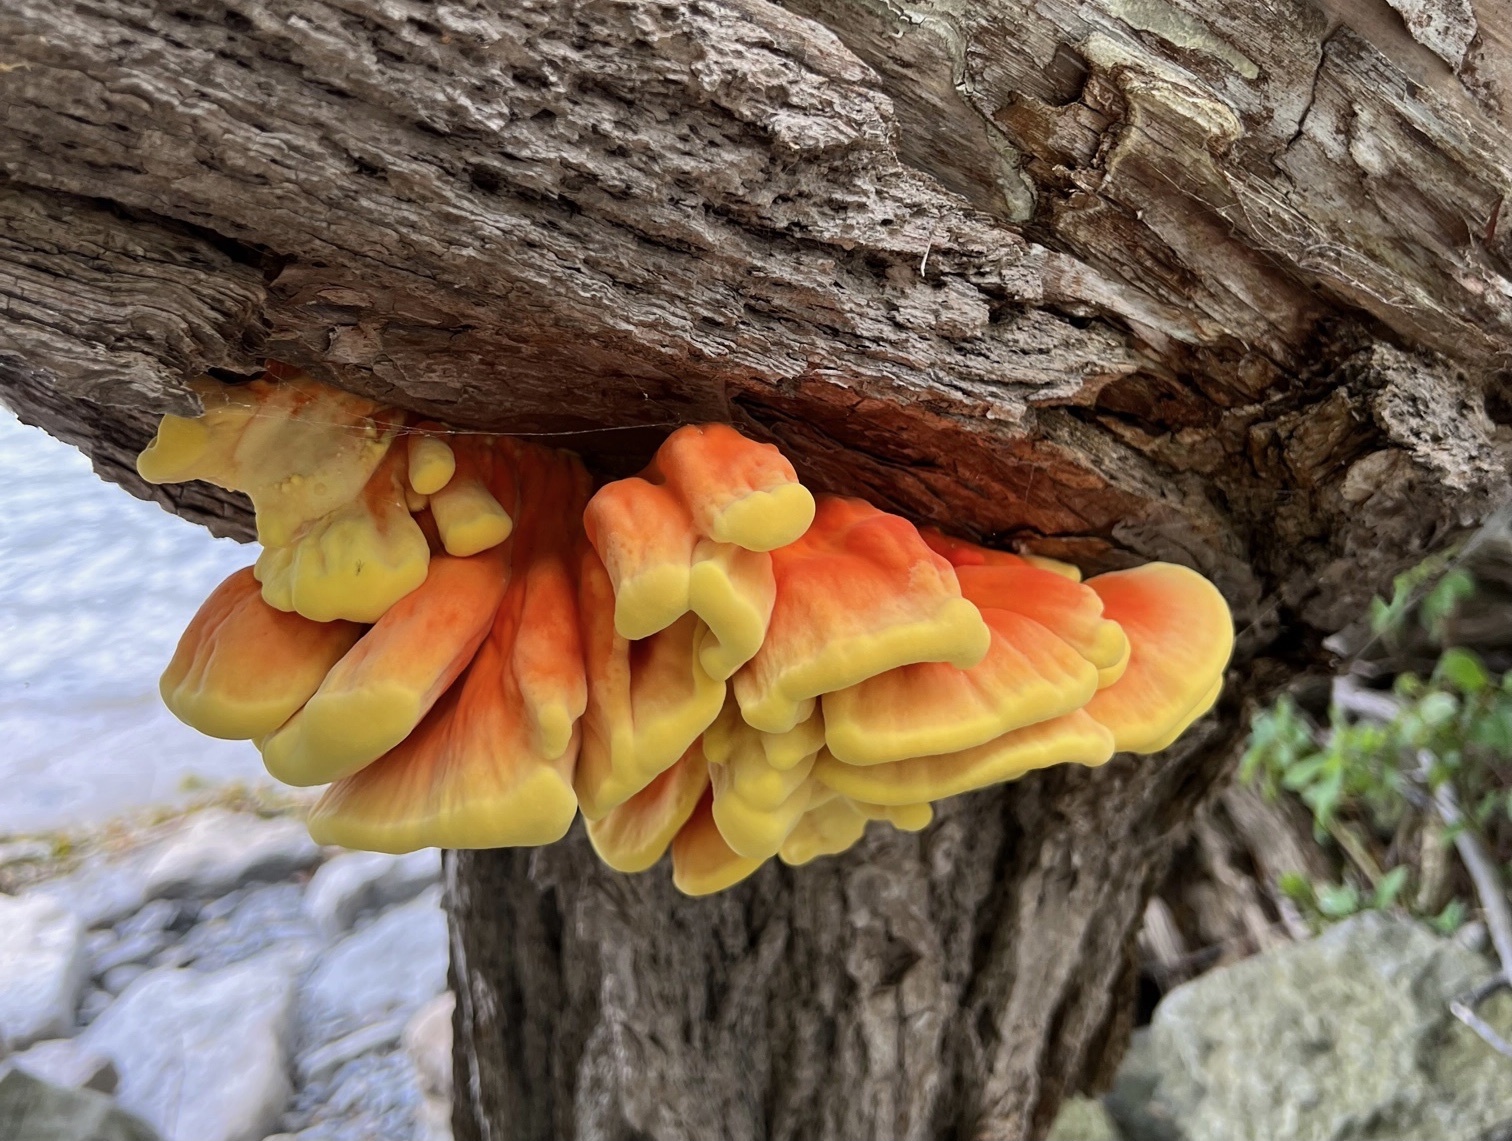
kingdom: Fungi
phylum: Basidiomycota
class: Agaricomycetes
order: Polyporales
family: Laetiporaceae
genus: Laetiporus
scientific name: Laetiporus sulphureus
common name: Chicken of the woods
